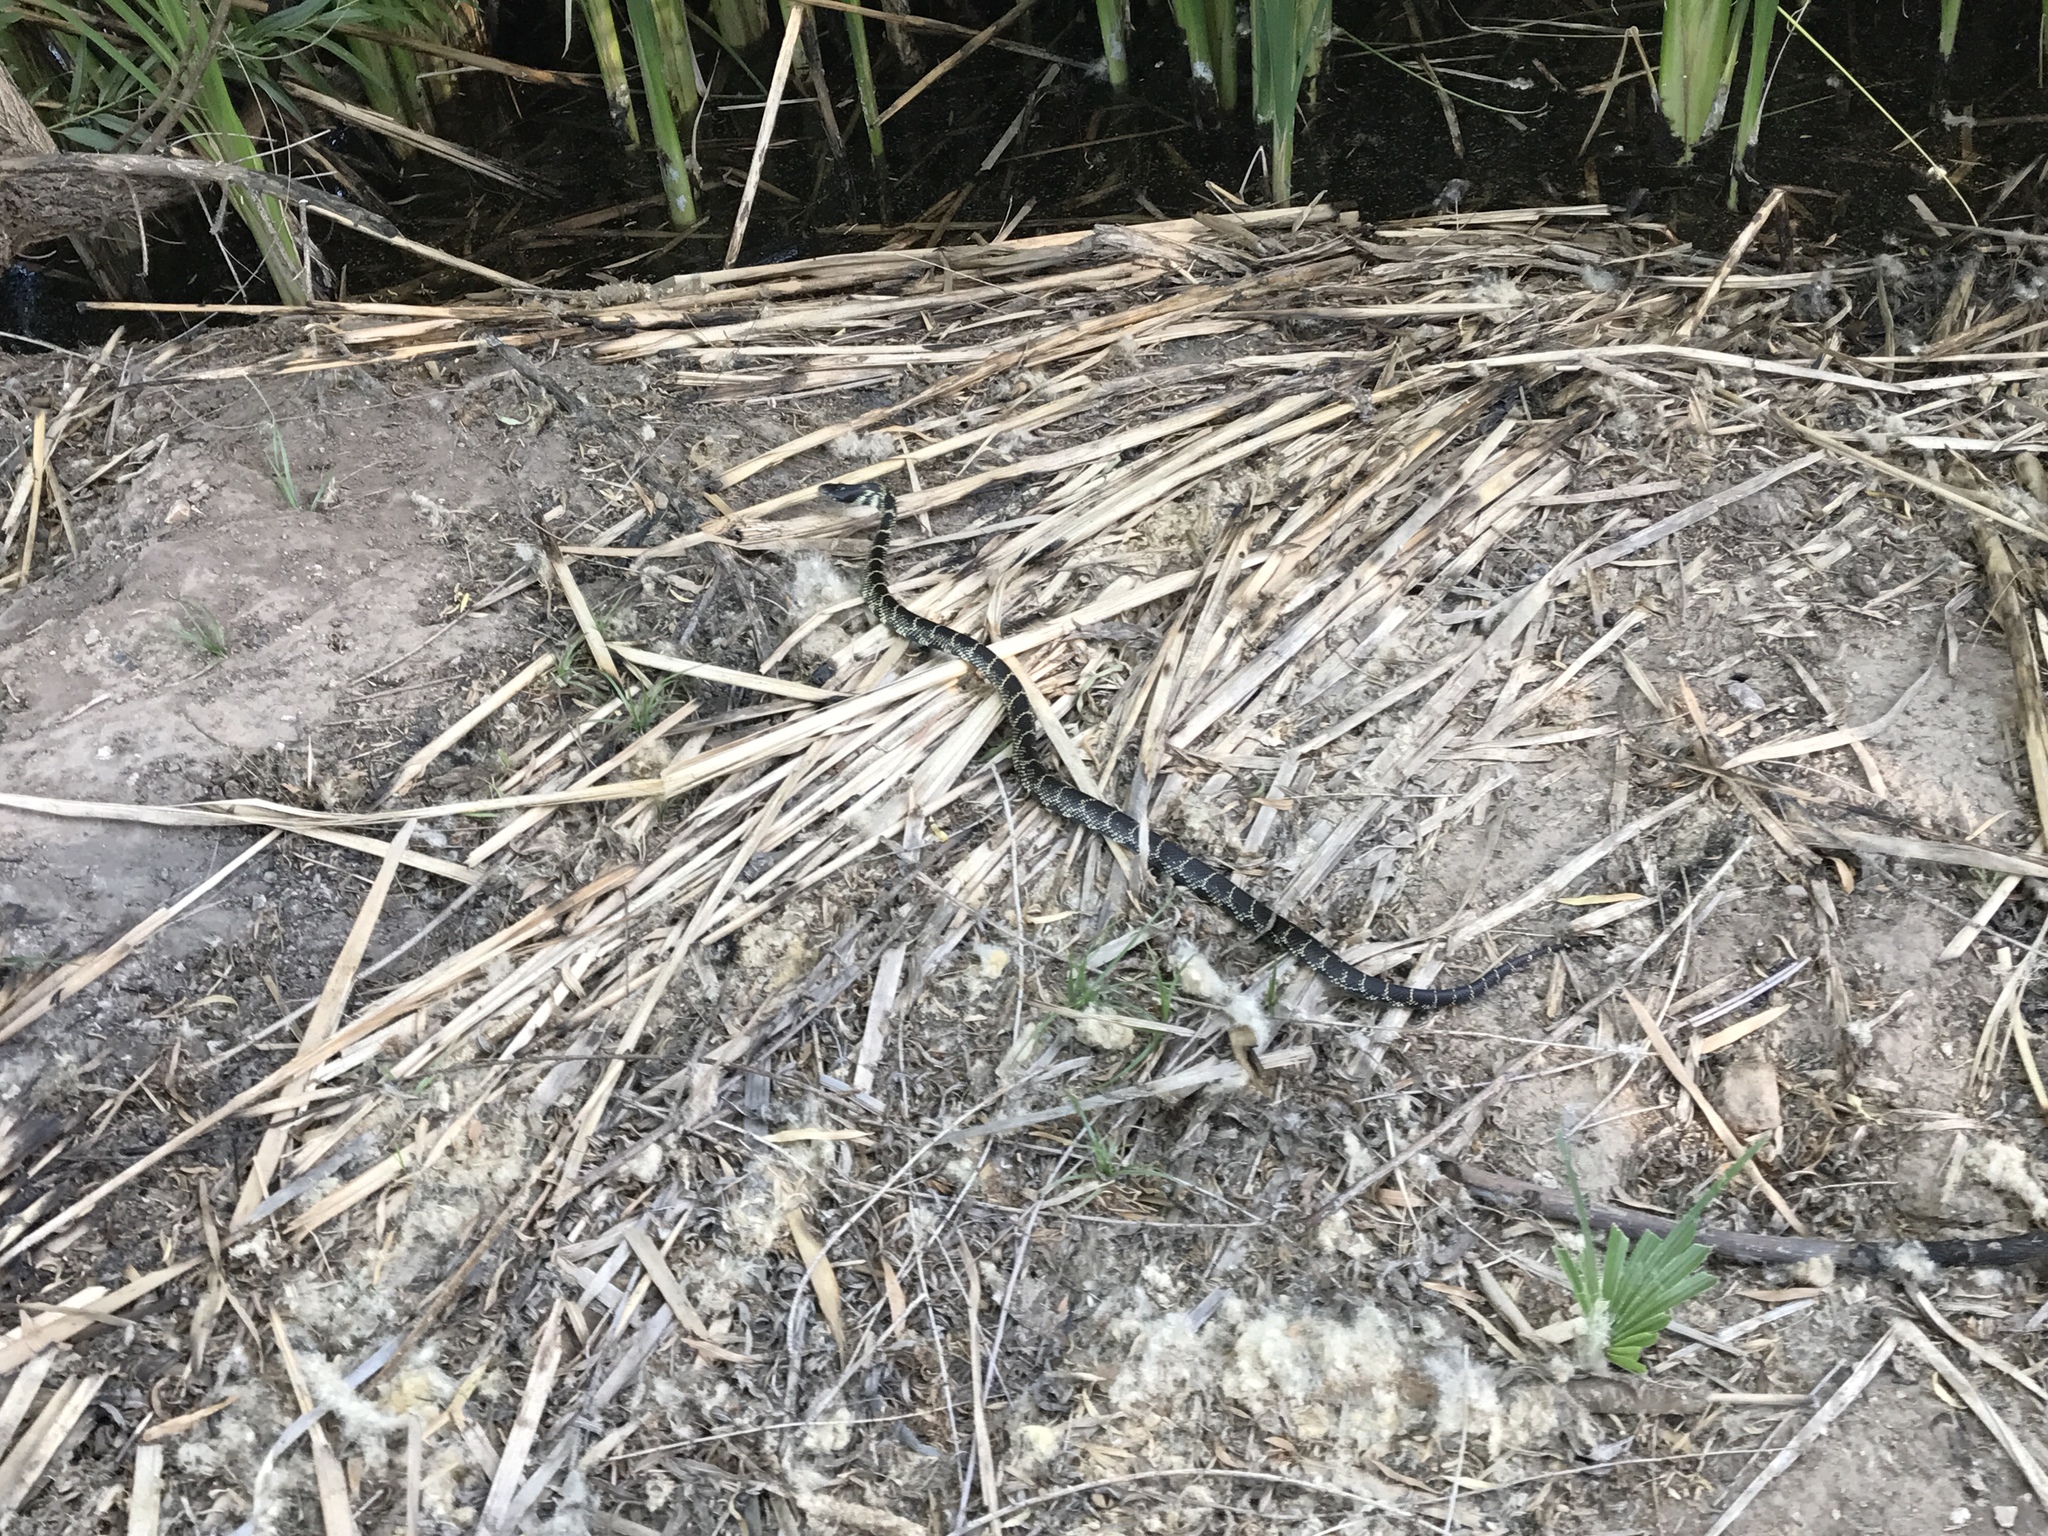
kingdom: Animalia
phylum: Chordata
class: Squamata
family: Colubridae
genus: Lampropeltis
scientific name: Lampropeltis splendida
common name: Desert kingsnake
